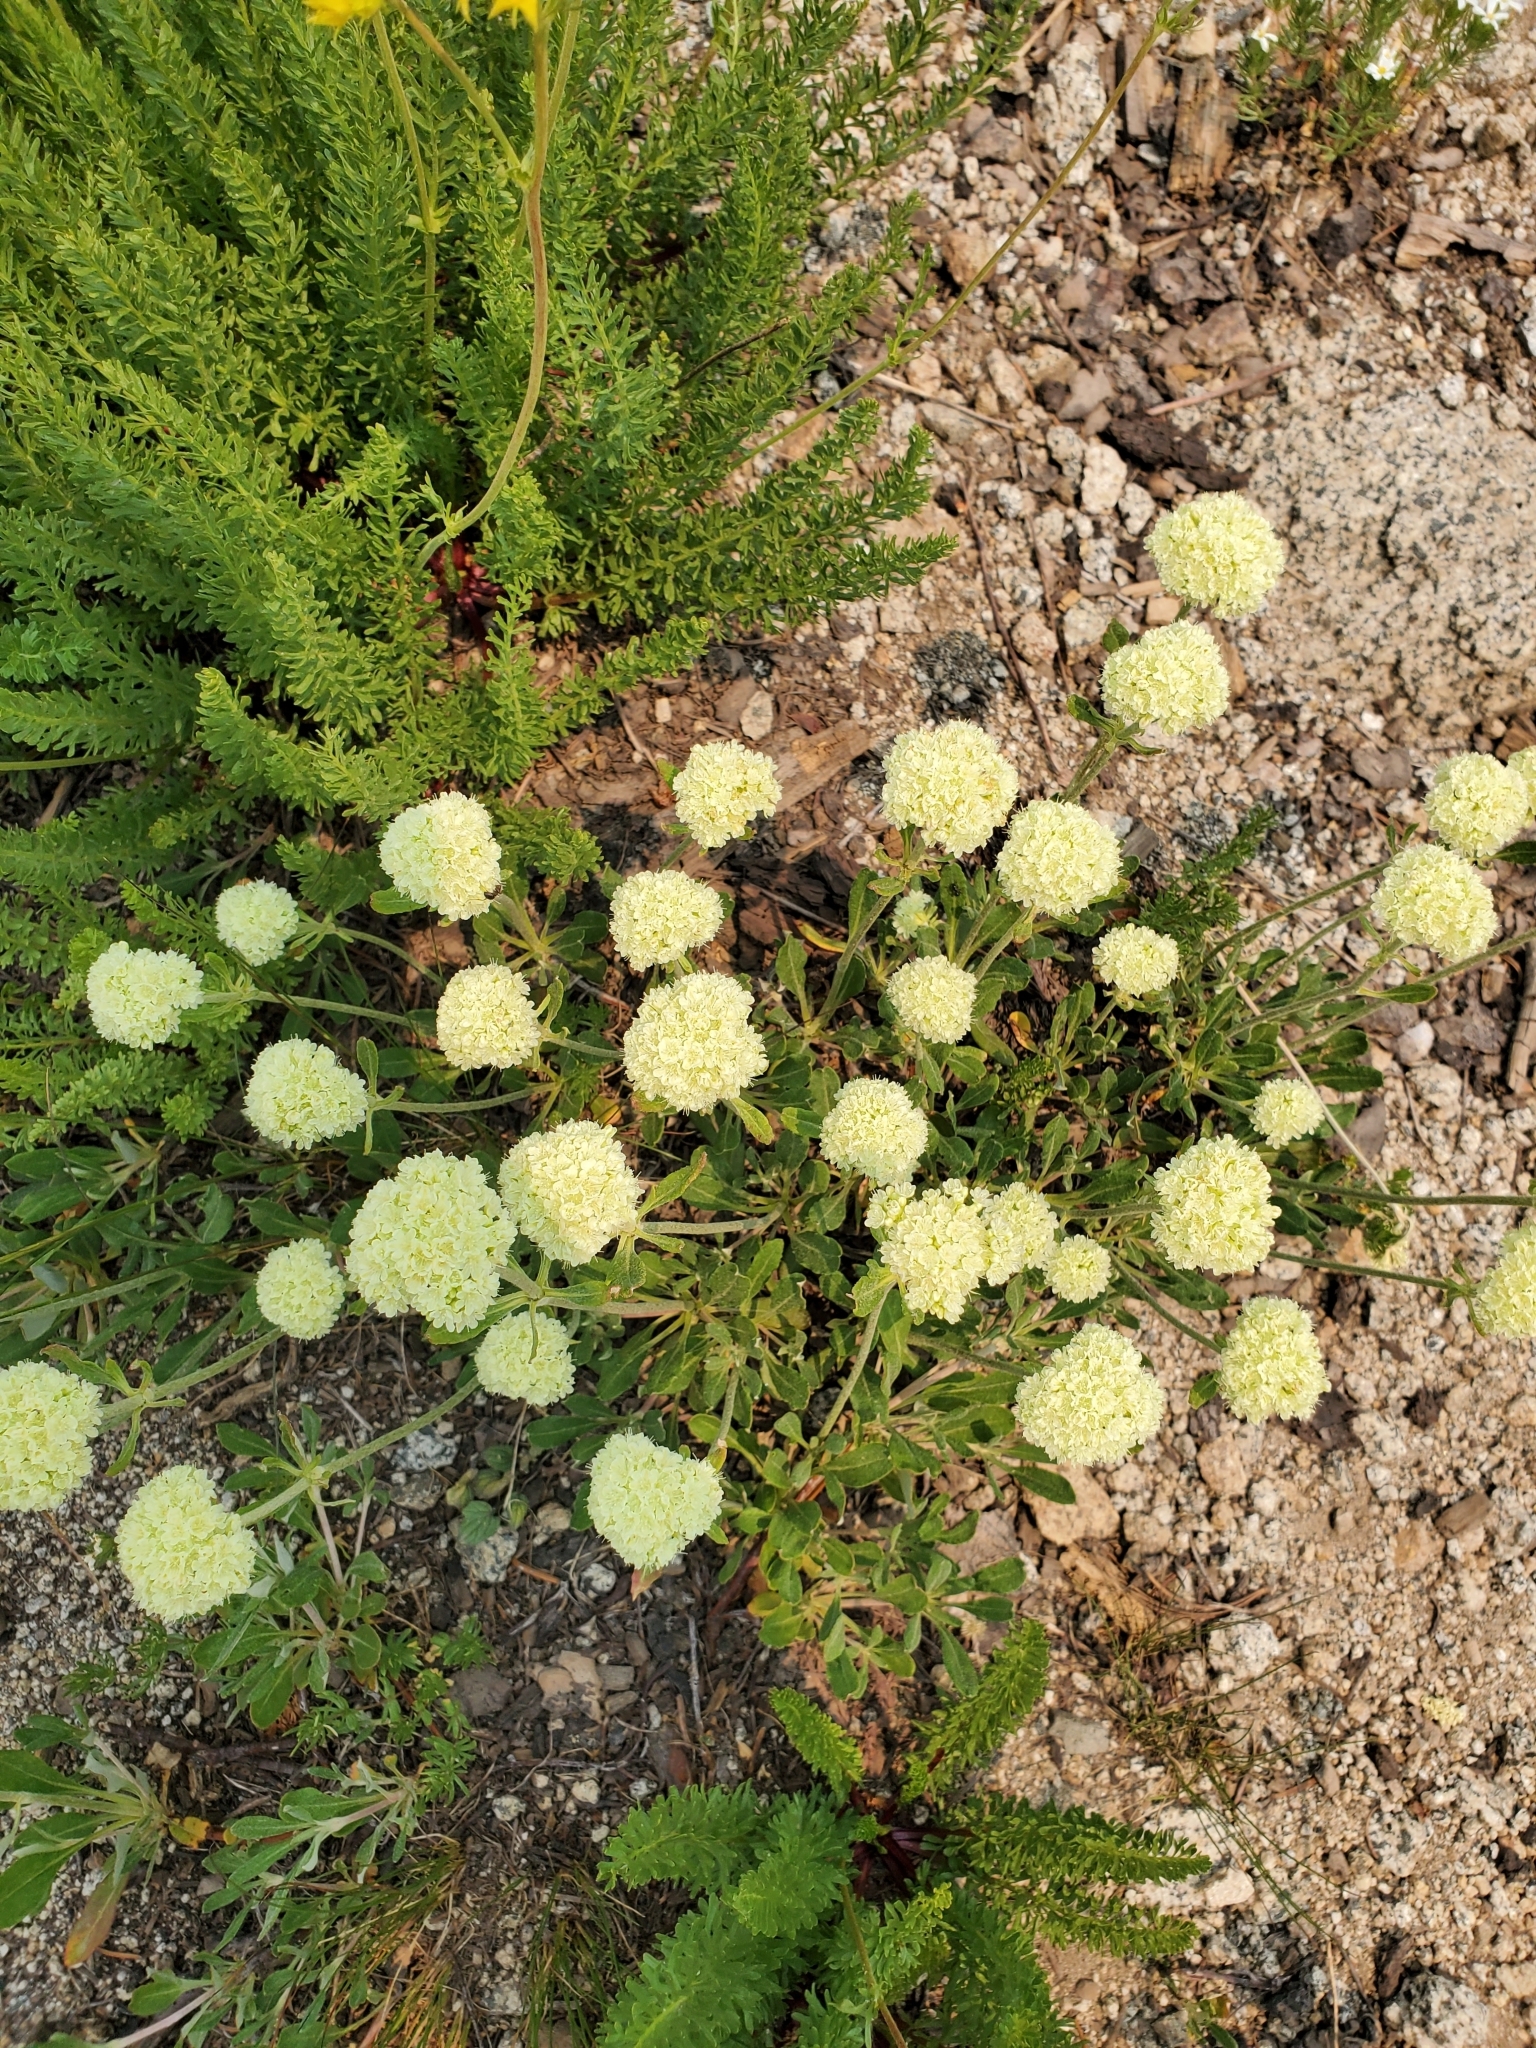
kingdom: Plantae
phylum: Tracheophyta
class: Magnoliopsida
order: Caryophyllales
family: Polygonaceae
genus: Eriogonum
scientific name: Eriogonum umbellatum
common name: Sulfur-buckwheat
